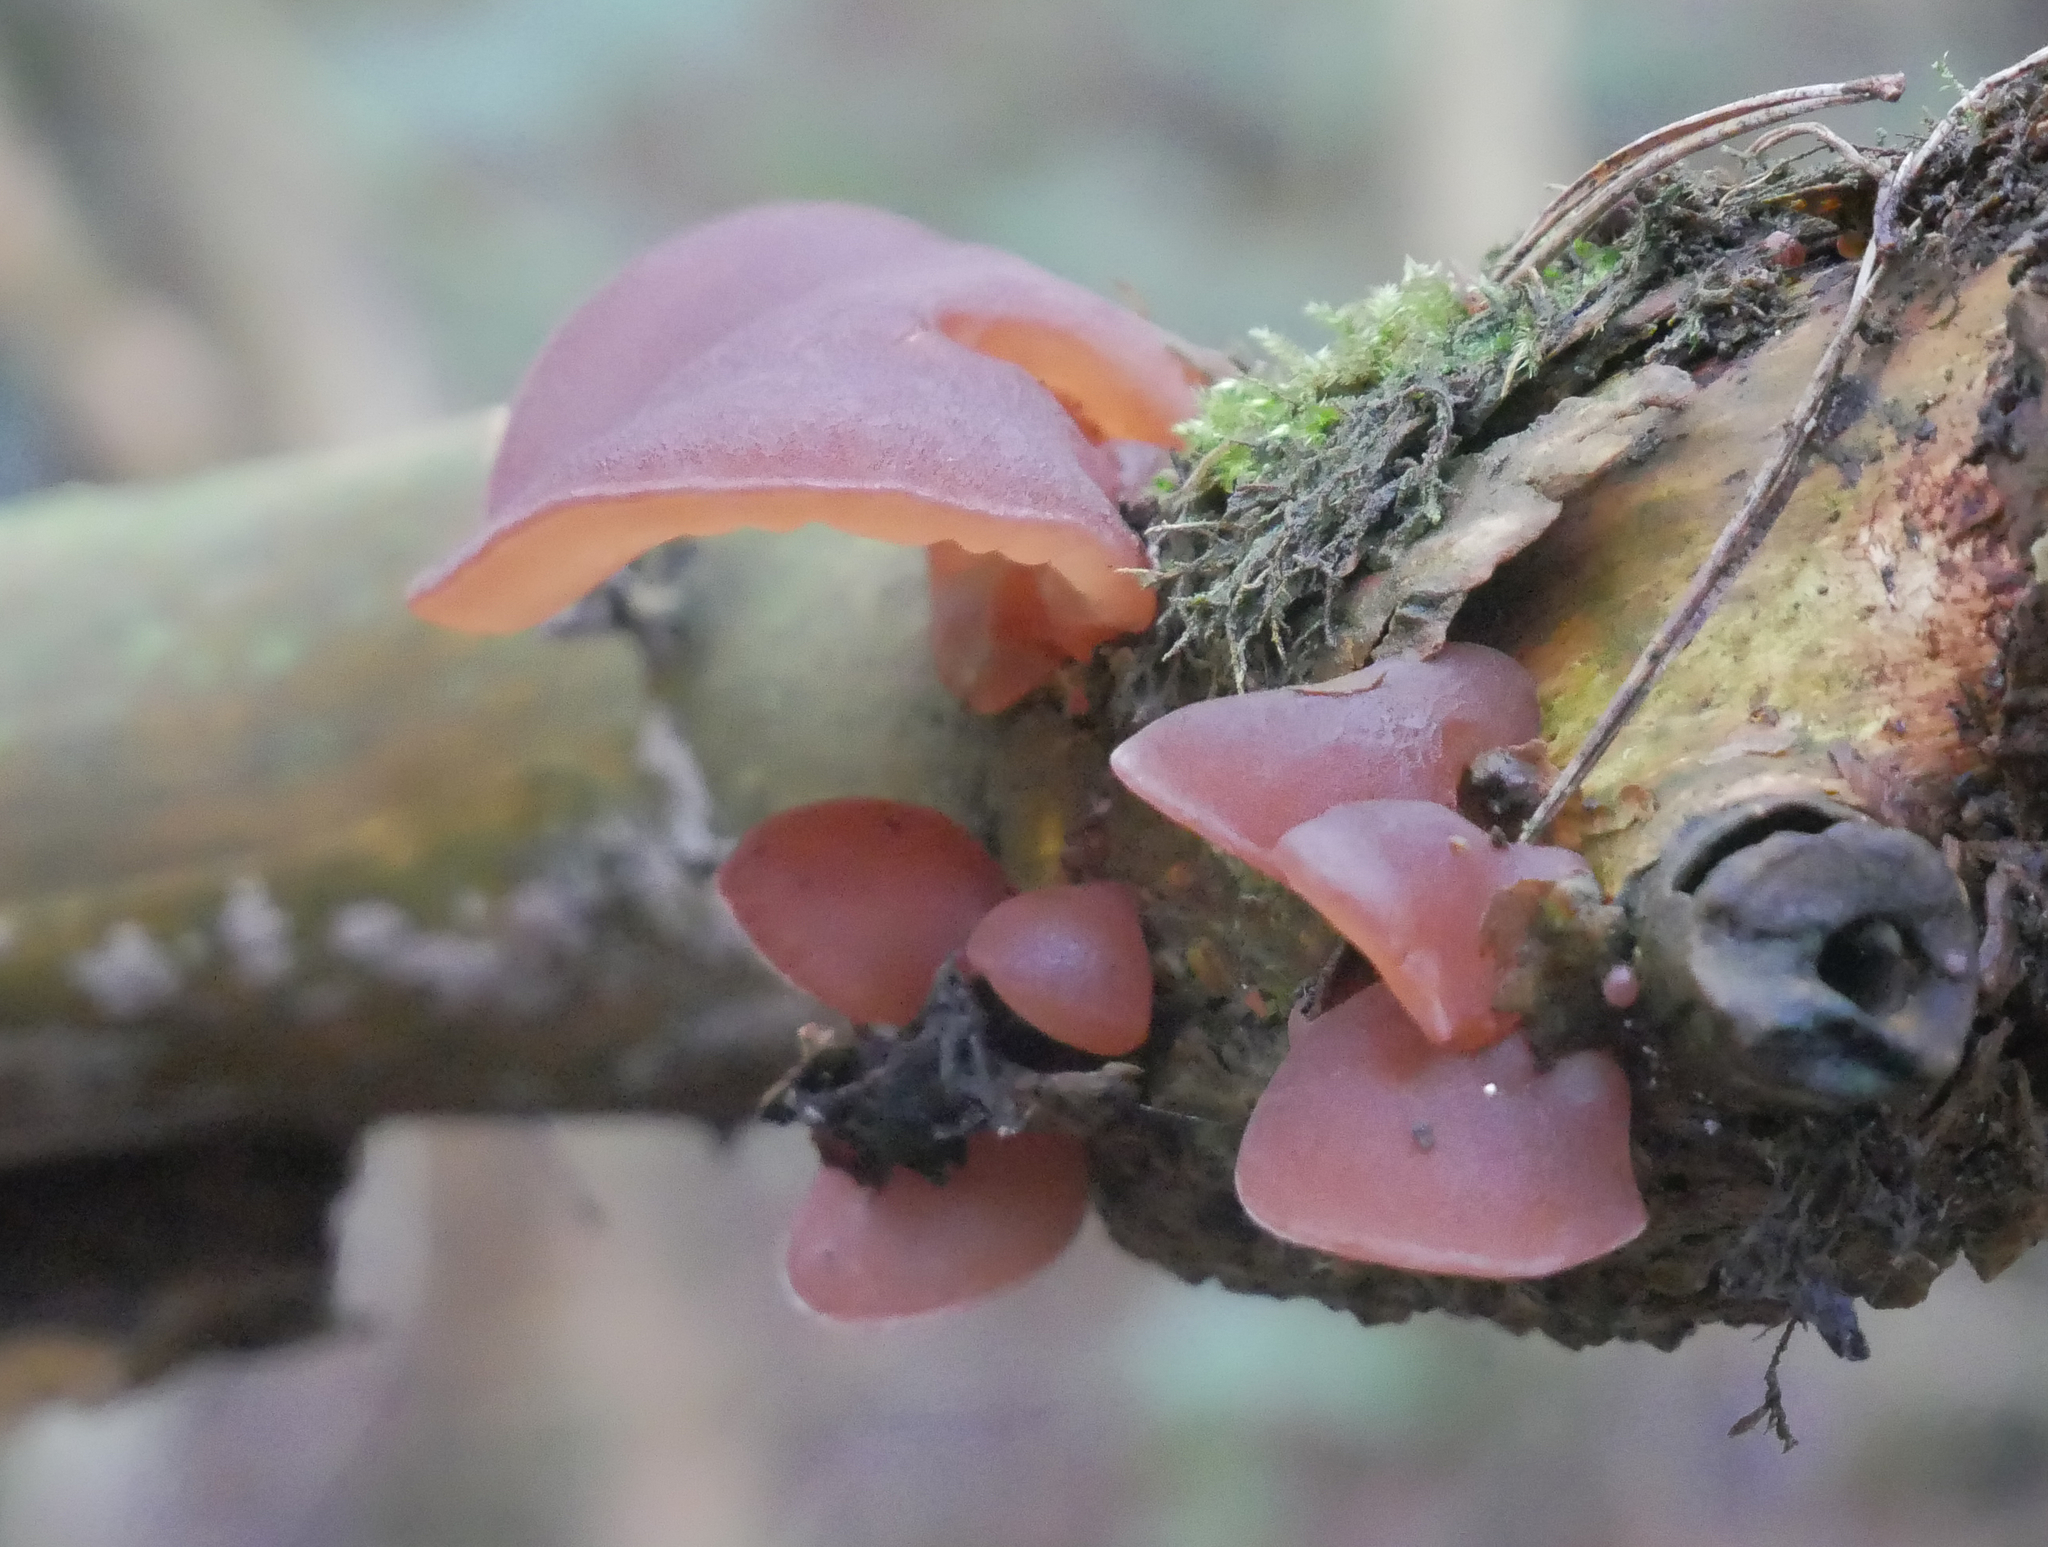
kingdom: Fungi
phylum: Basidiomycota
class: Agaricomycetes
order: Auriculariales
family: Auriculariaceae
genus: Auricularia
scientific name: Auricularia auricula-judae
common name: Jelly ear
